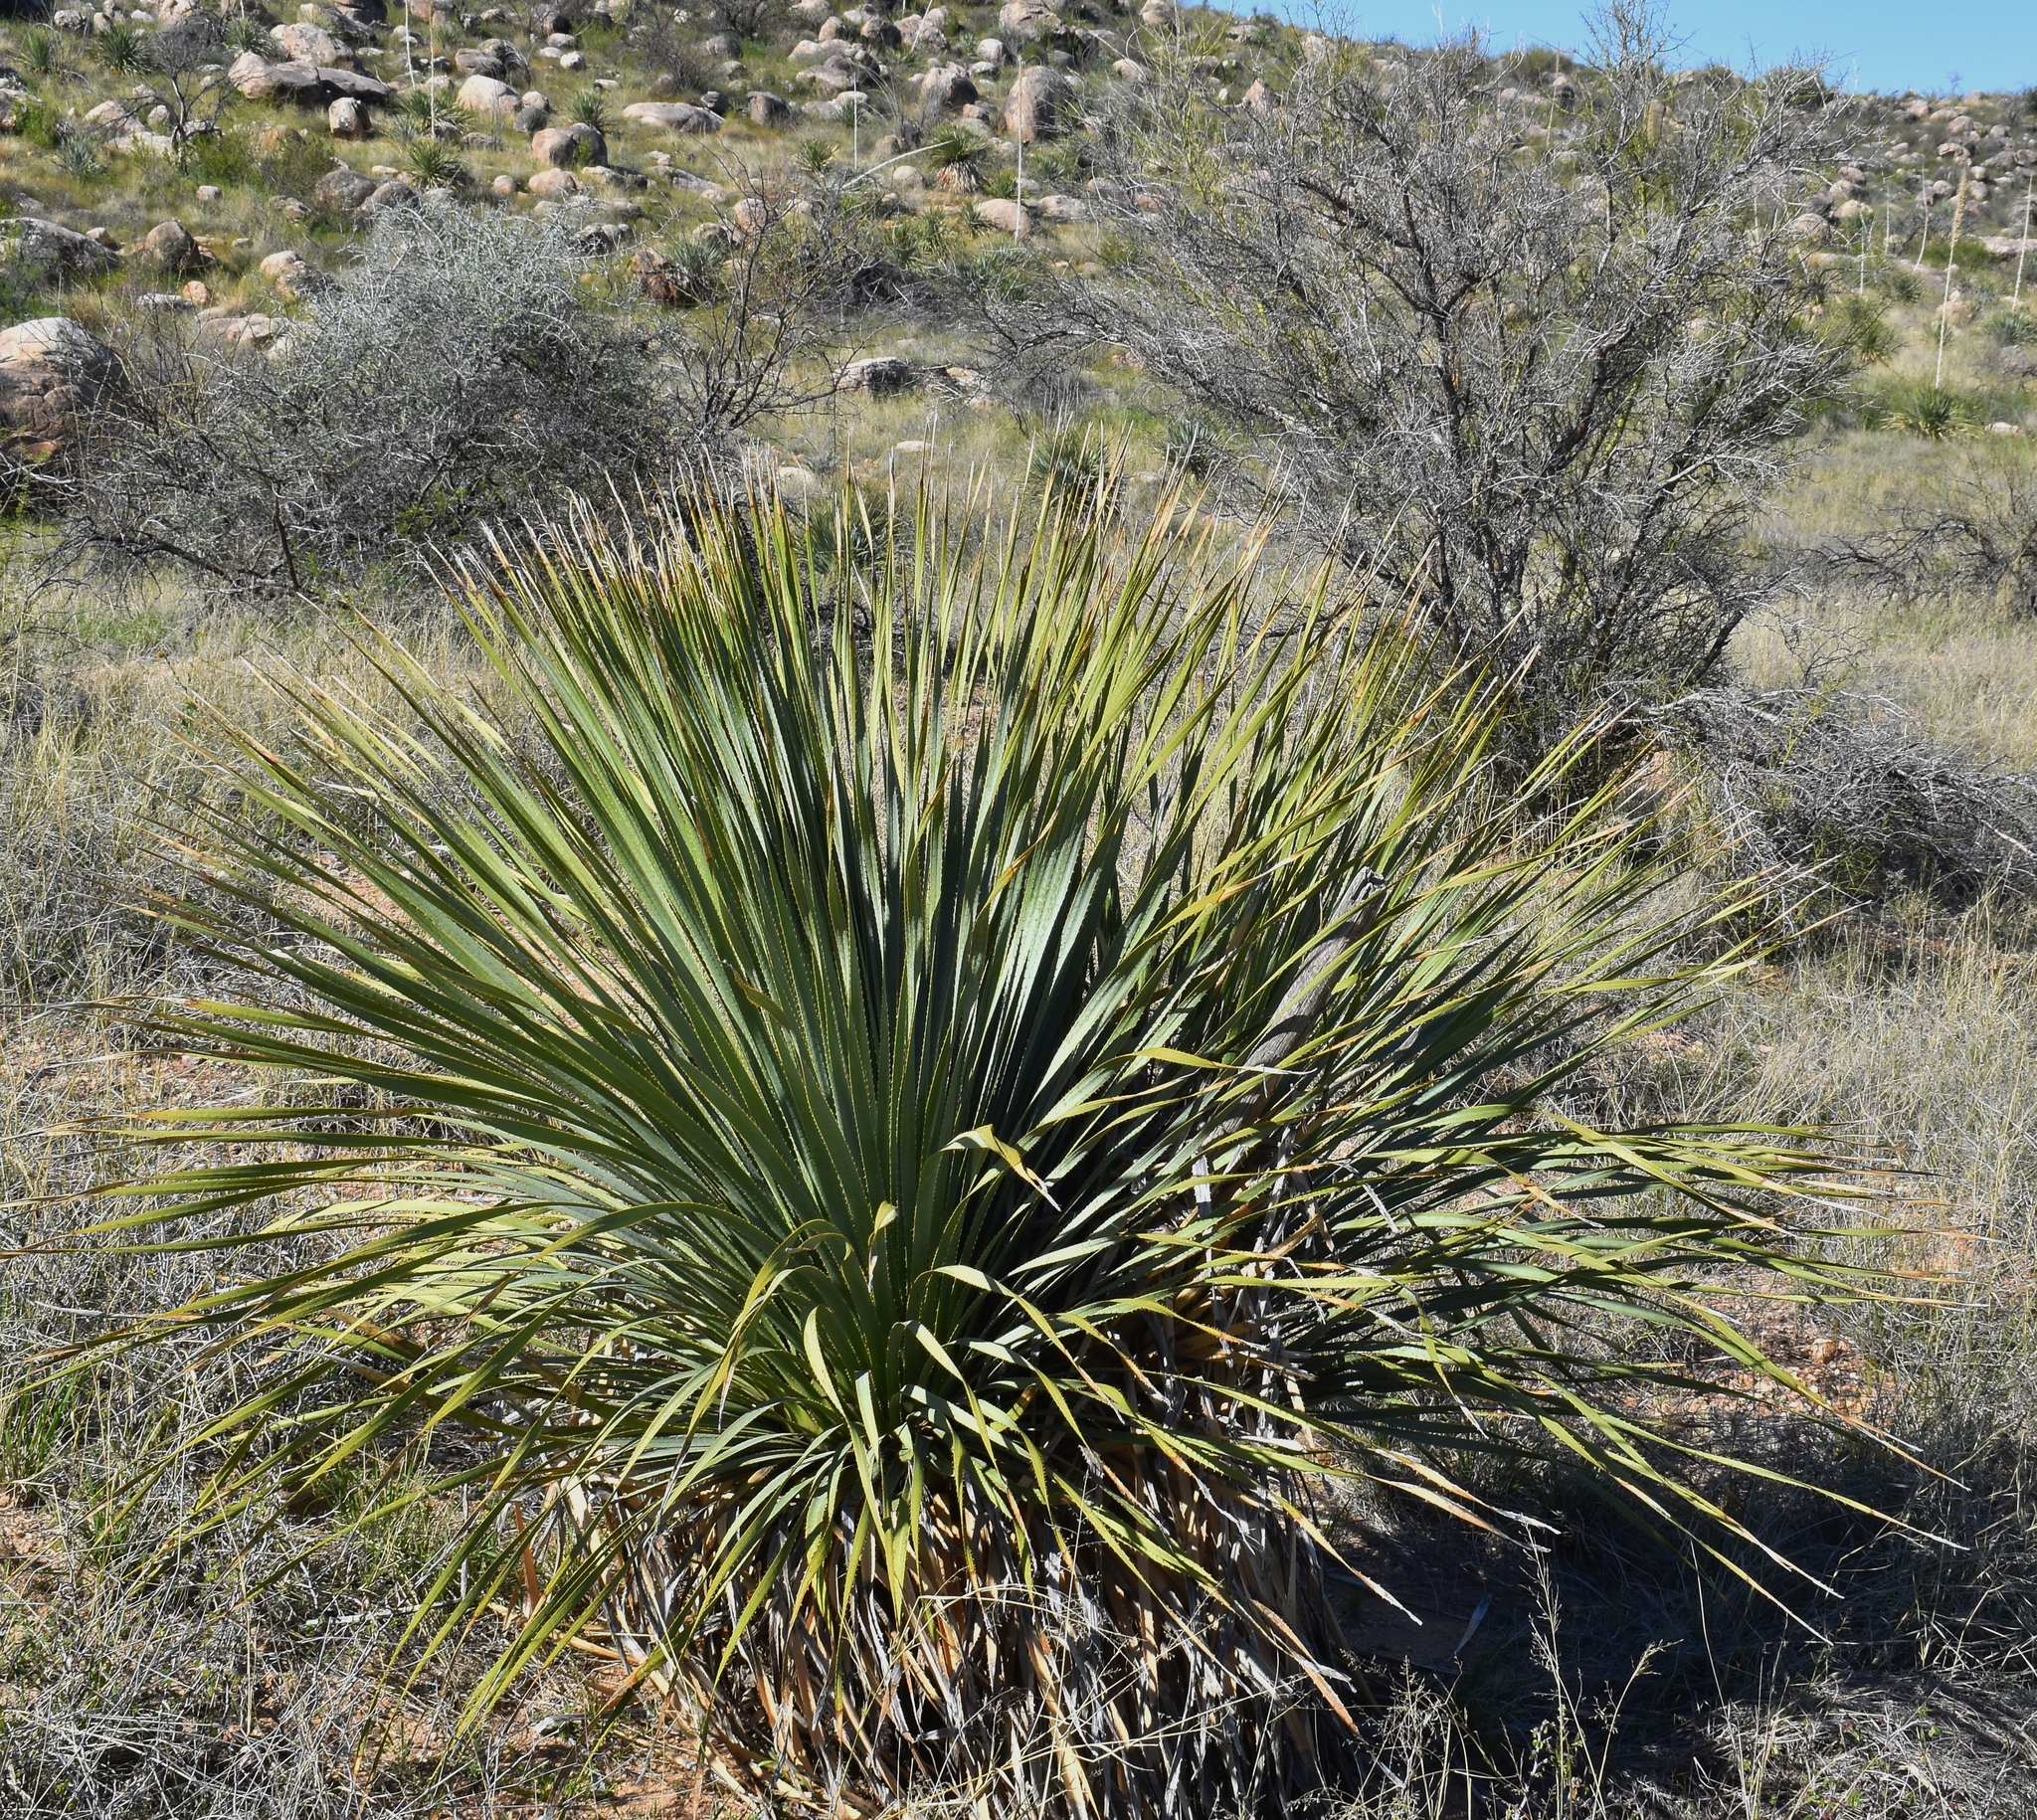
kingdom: Plantae
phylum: Tracheophyta
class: Liliopsida
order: Asparagales
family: Asparagaceae
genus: Dasylirion
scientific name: Dasylirion wheeleri
